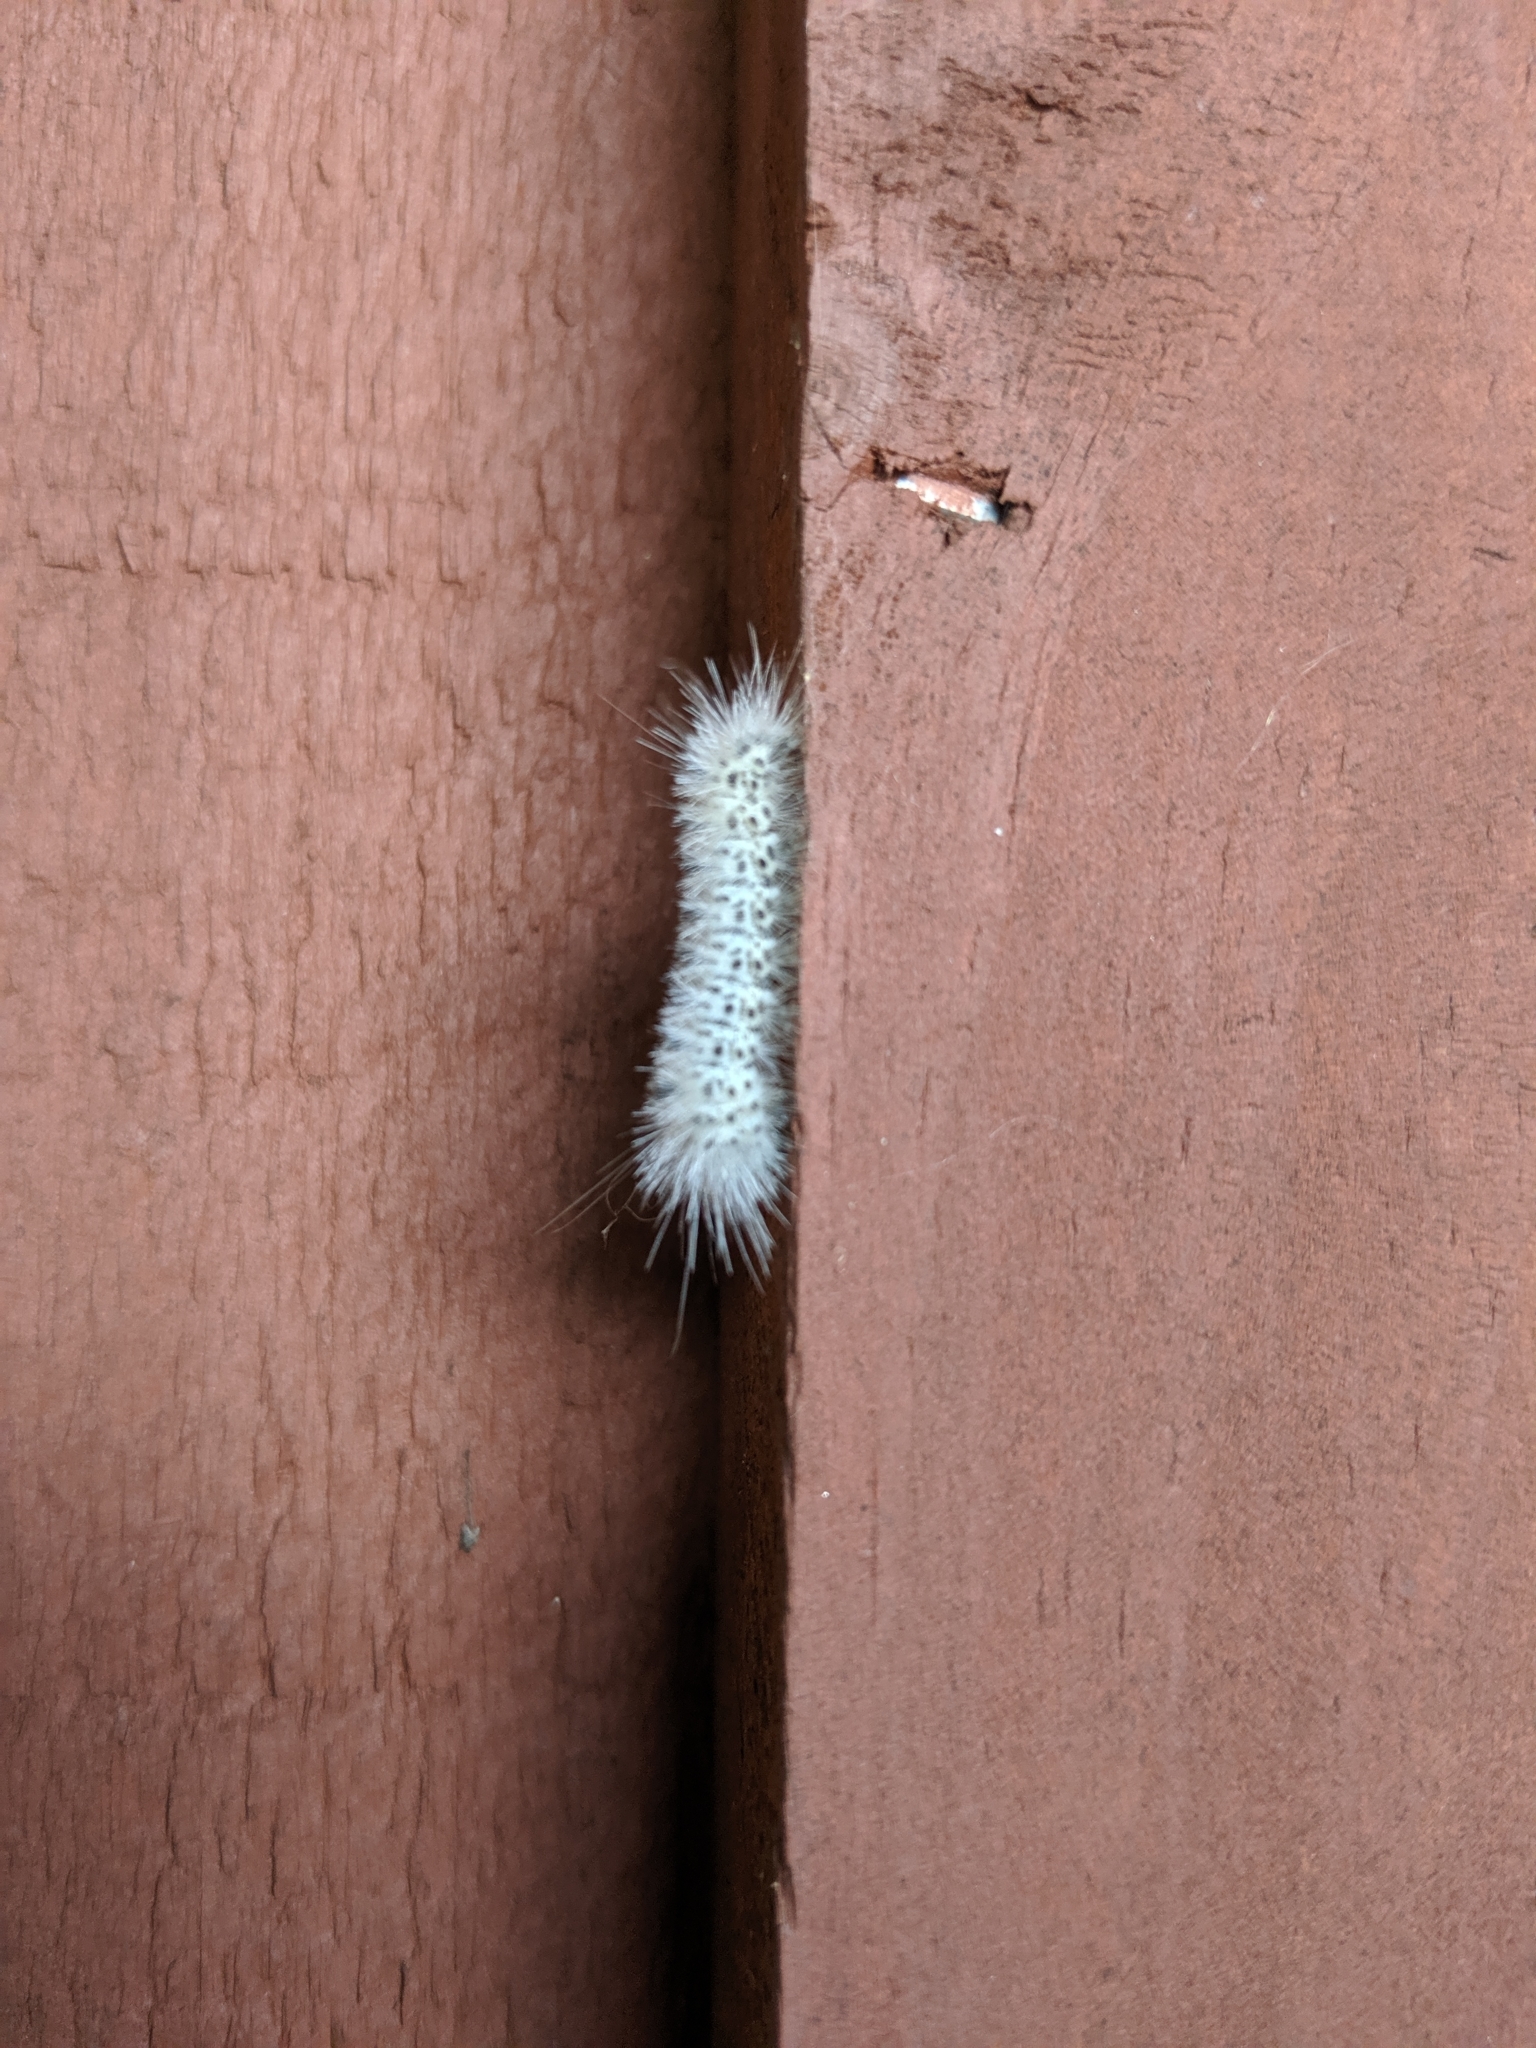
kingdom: Animalia
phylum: Arthropoda
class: Insecta
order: Lepidoptera
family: Erebidae
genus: Lophocampa
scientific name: Lophocampa caryae
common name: Hickory tussock moth
